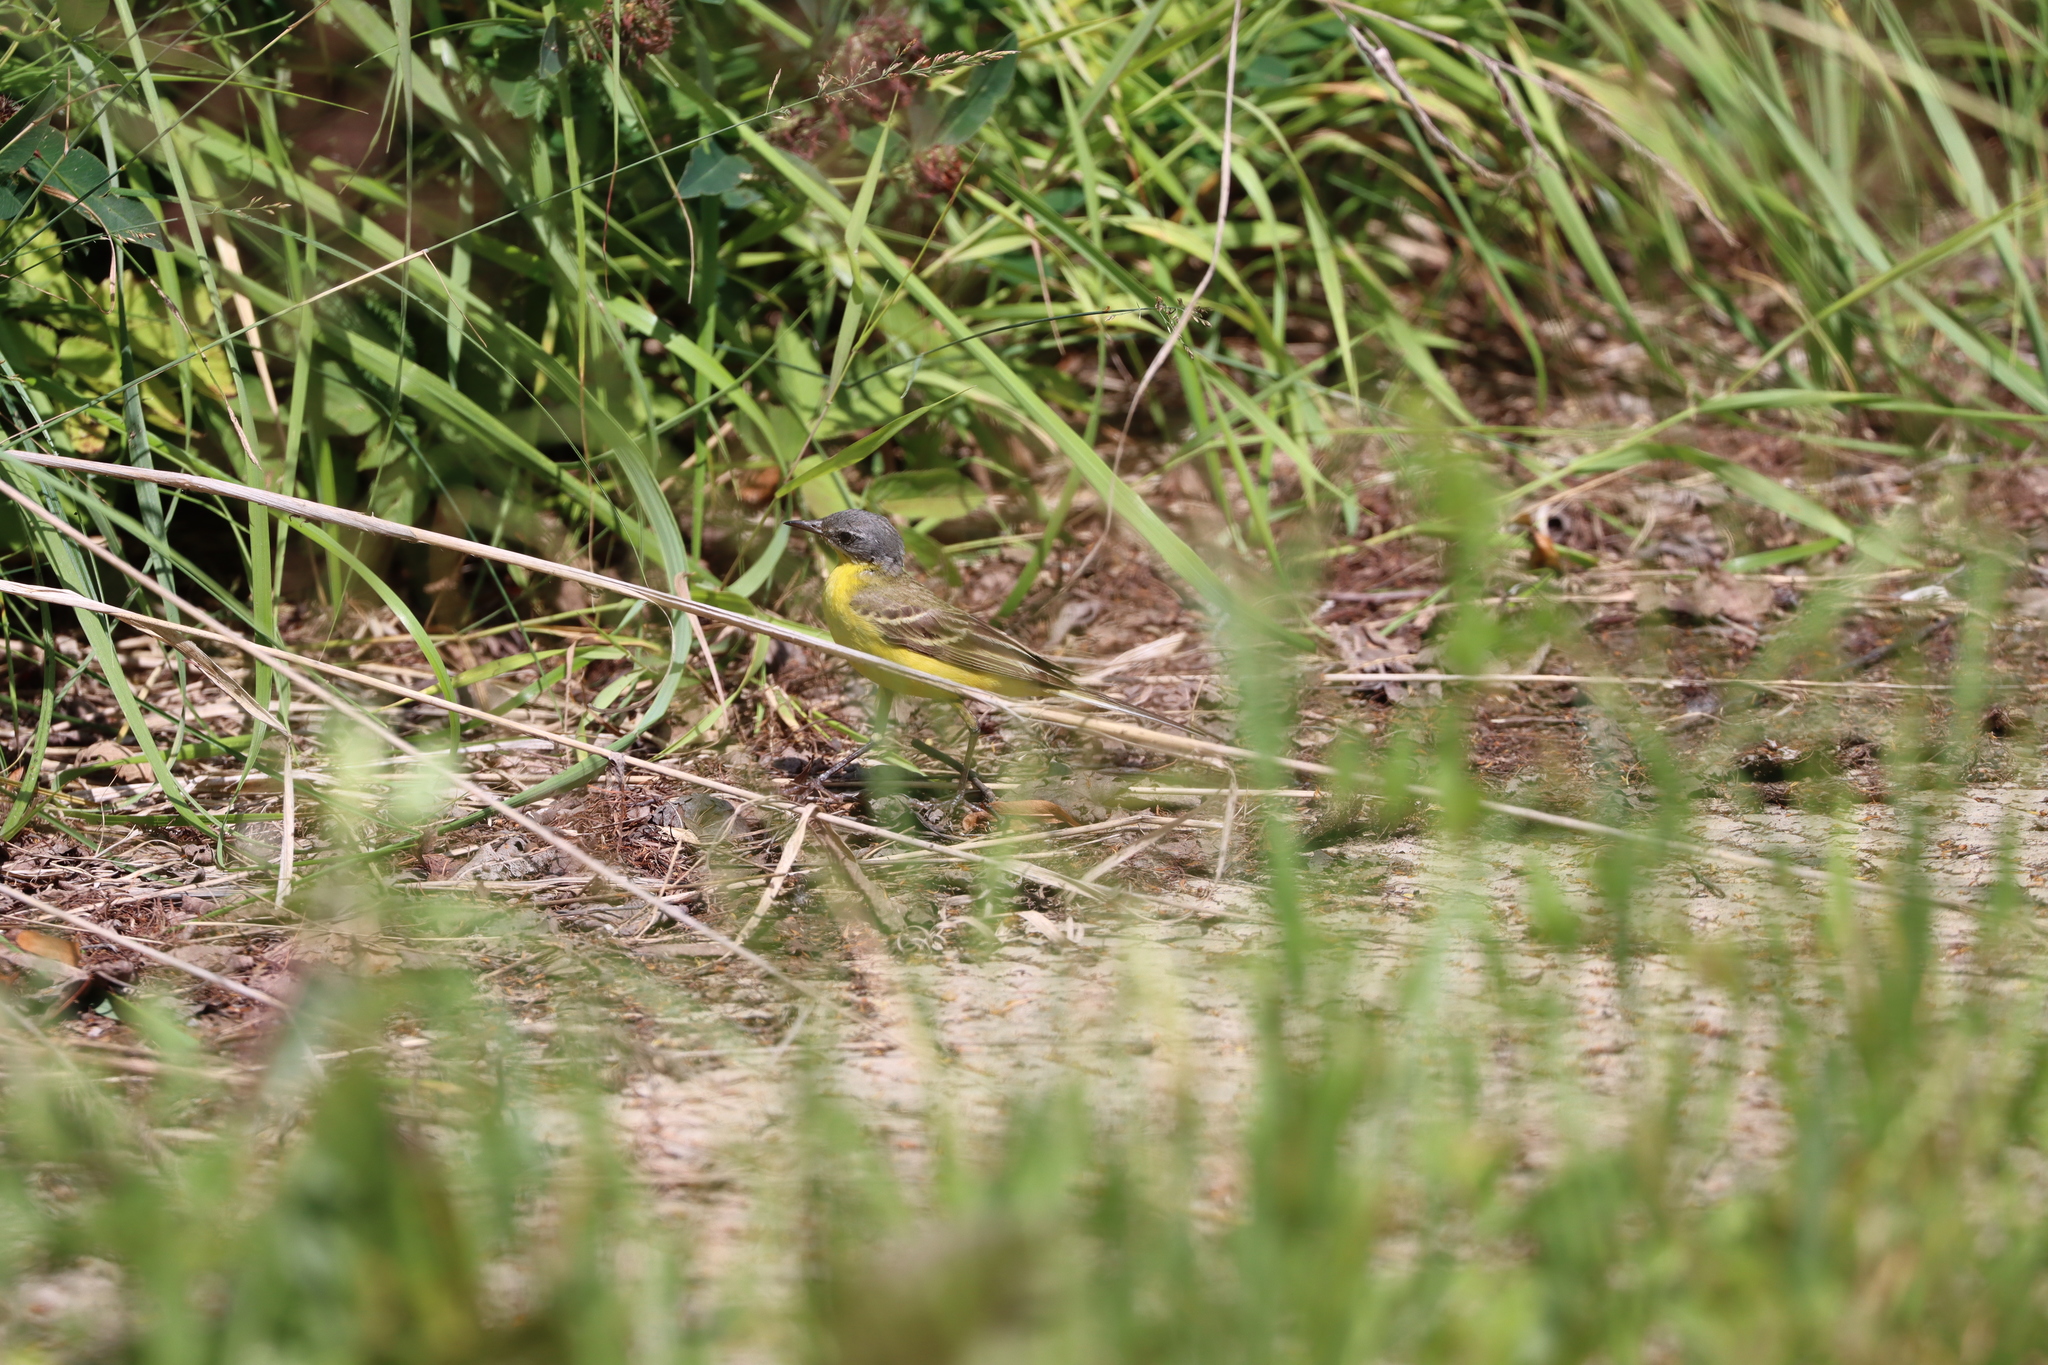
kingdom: Animalia
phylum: Chordata
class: Aves
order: Passeriformes
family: Motacillidae
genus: Motacilla
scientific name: Motacilla flava
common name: Western yellow wagtail
